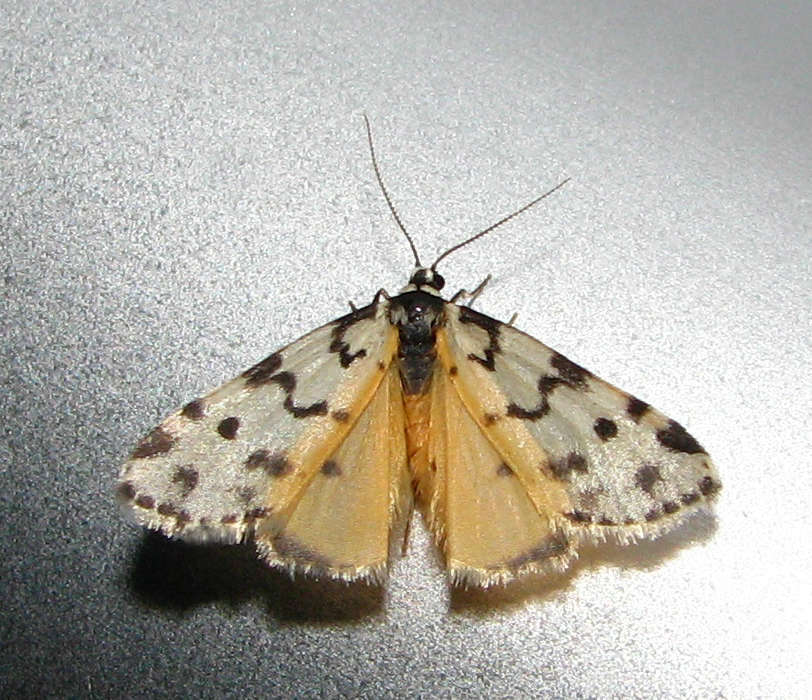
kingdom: Animalia
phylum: Arthropoda
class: Insecta
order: Lepidoptera
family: Erebidae
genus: Thallarcha
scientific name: Thallarcha jocularis
